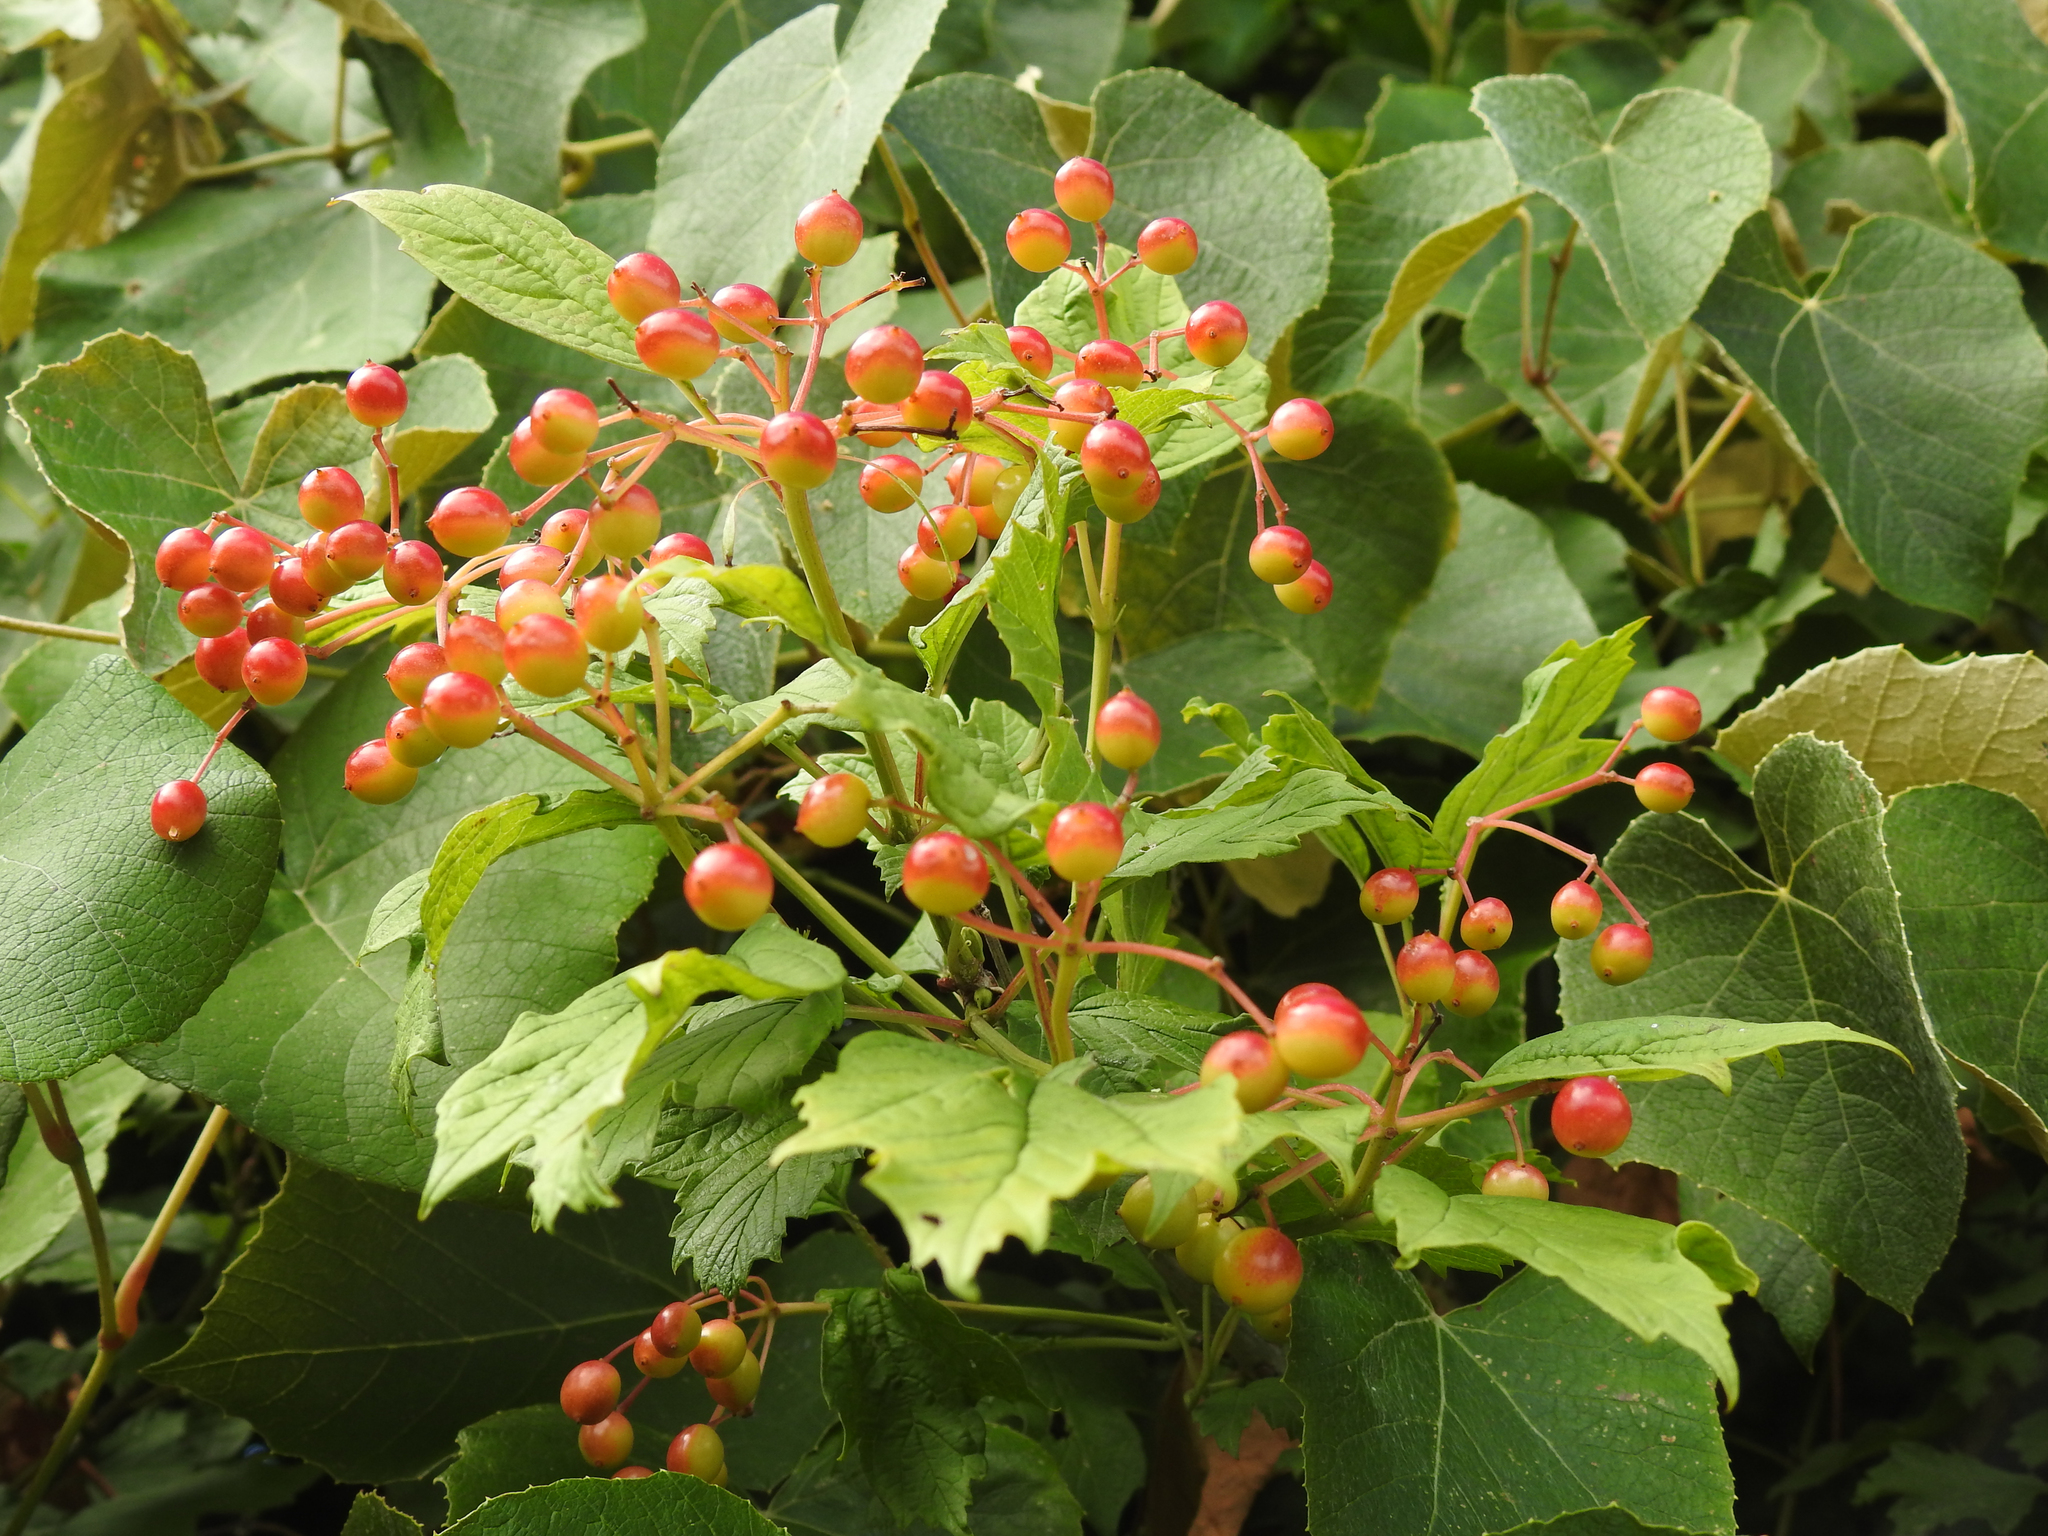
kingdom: Plantae
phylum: Tracheophyta
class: Magnoliopsida
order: Dipsacales
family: Viburnaceae
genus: Viburnum
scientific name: Viburnum opulus
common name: Guelder-rose
